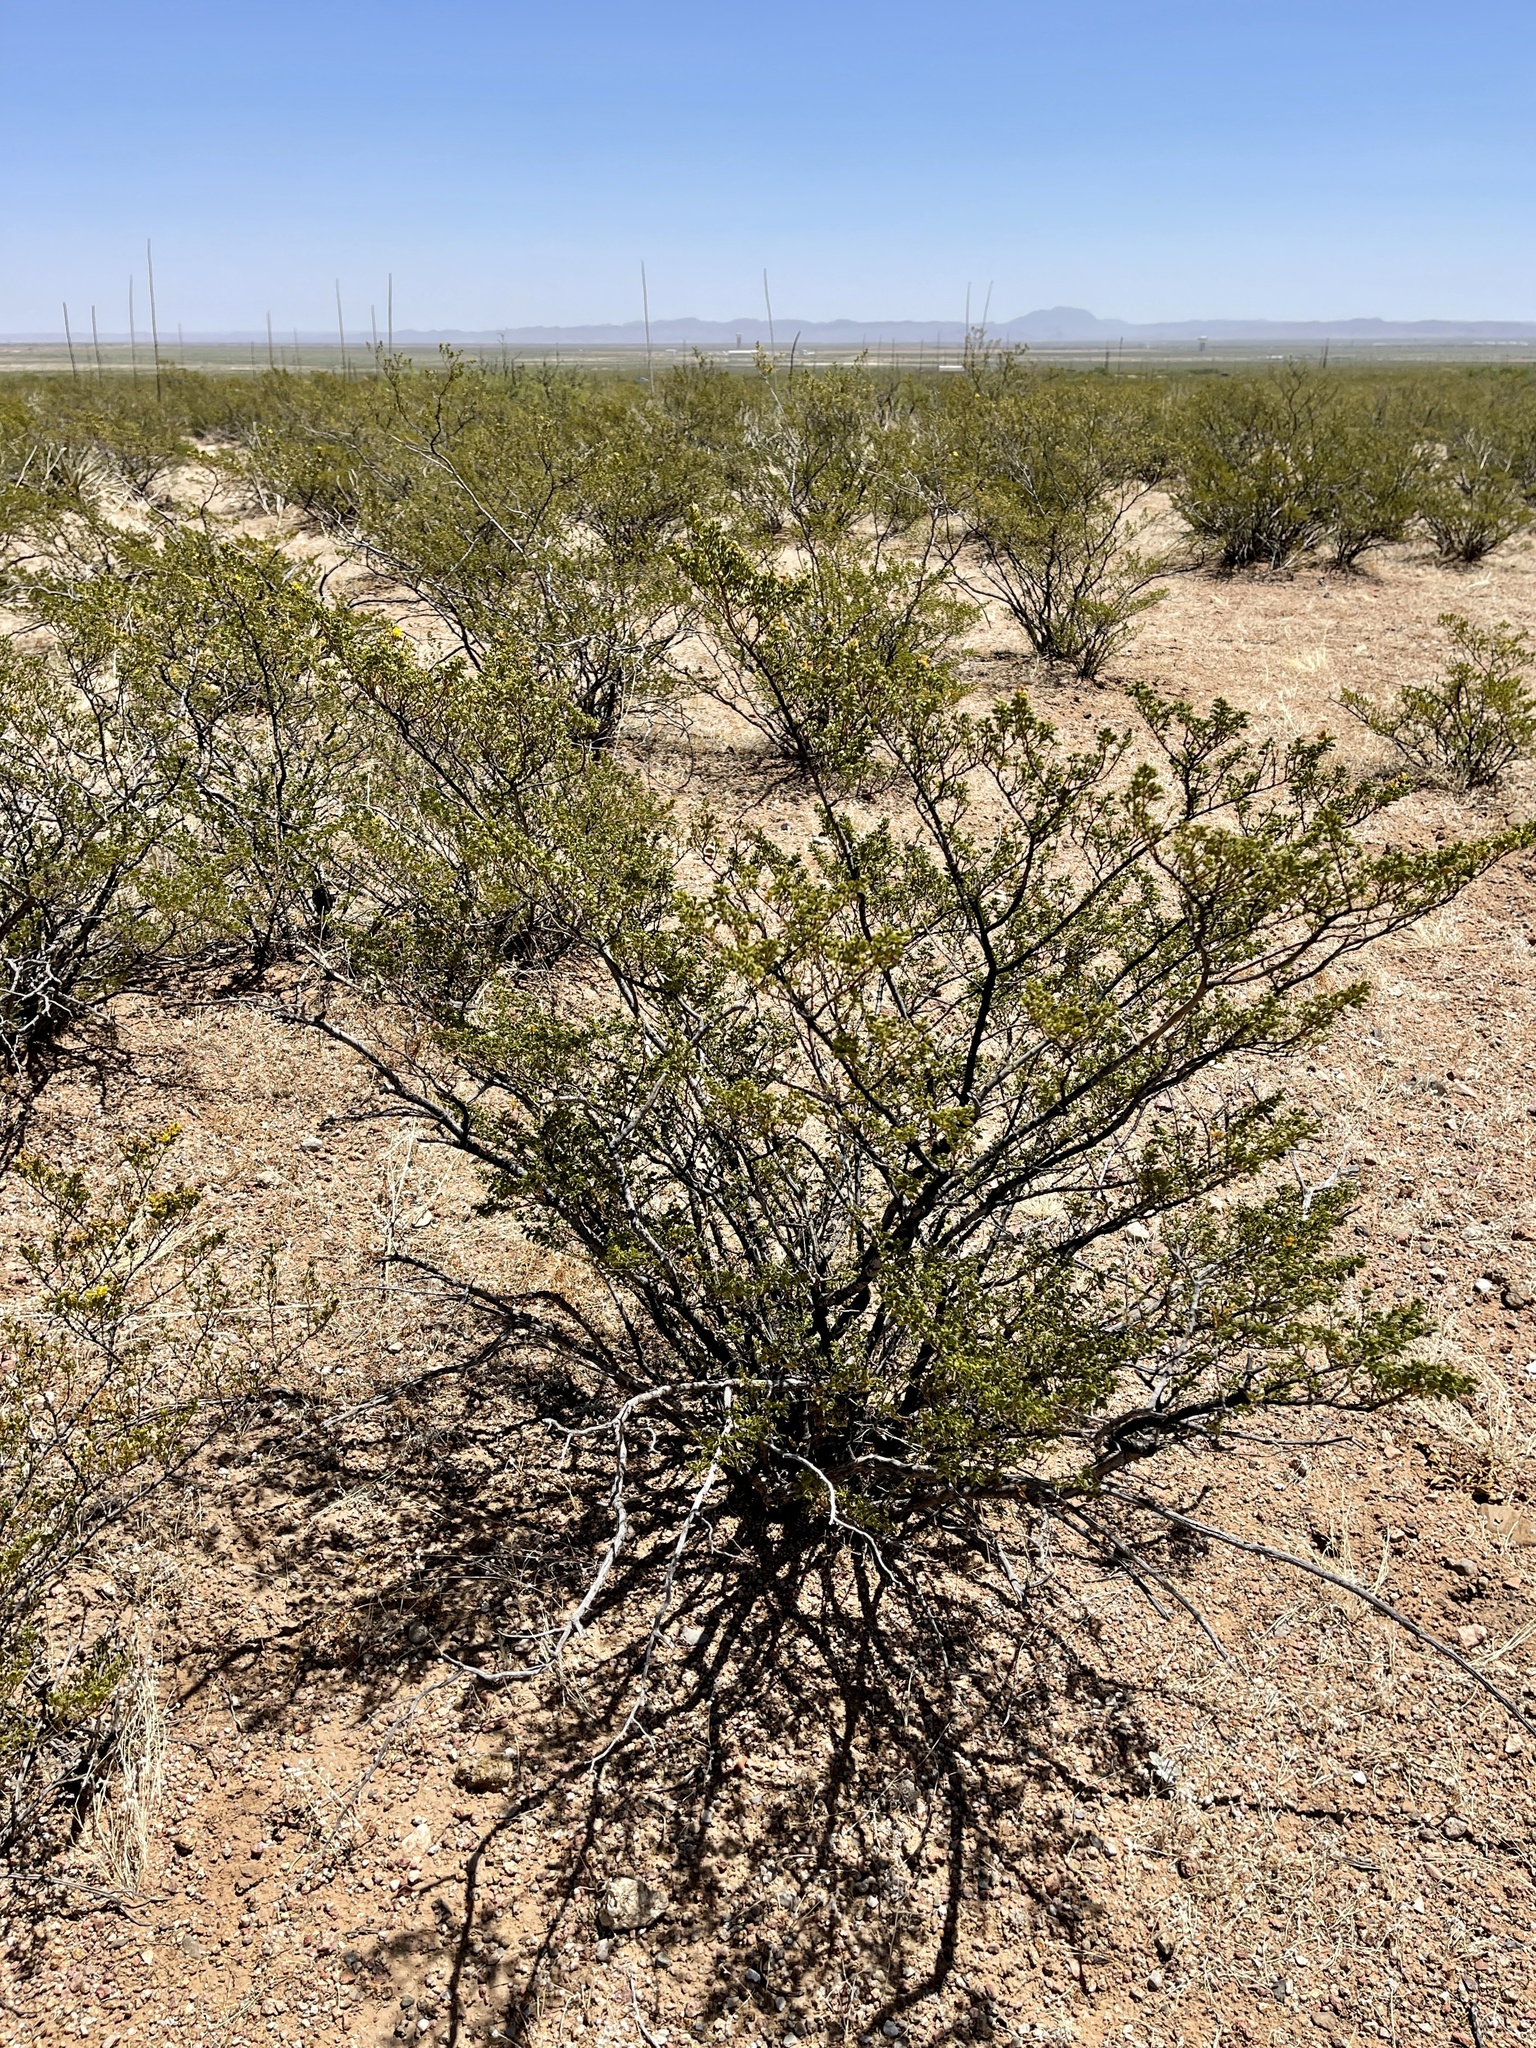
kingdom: Plantae
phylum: Tracheophyta
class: Magnoliopsida
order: Zygophyllales
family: Zygophyllaceae
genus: Larrea
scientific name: Larrea tridentata
